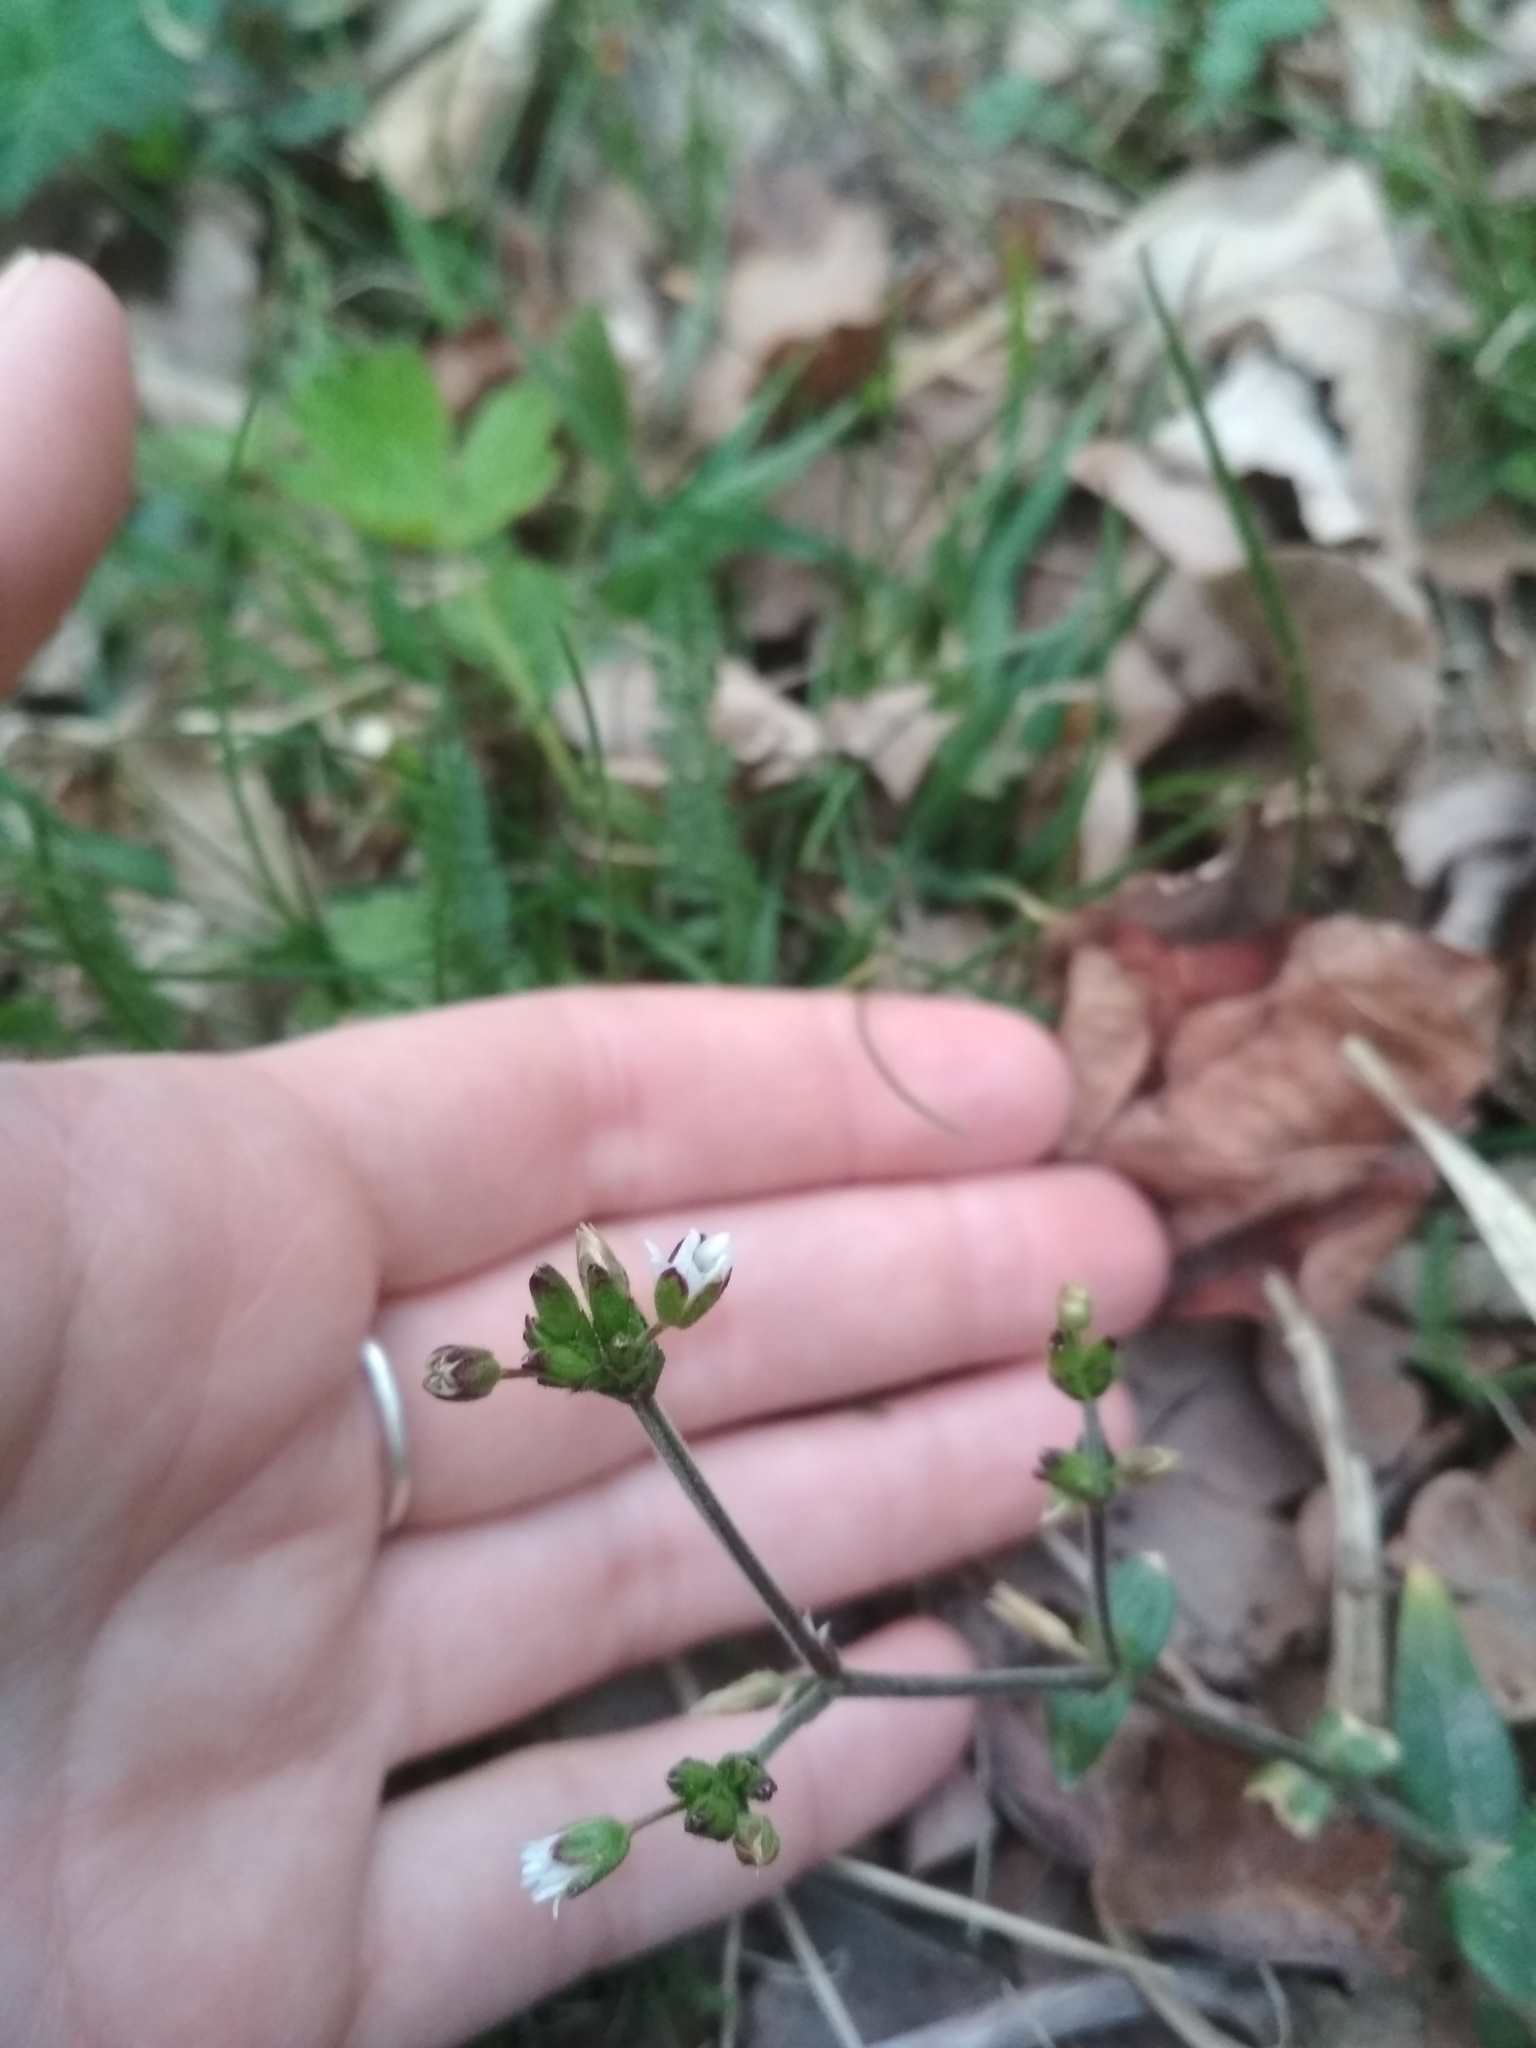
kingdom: Plantae
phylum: Tracheophyta
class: Magnoliopsida
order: Caryophyllales
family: Caryophyllaceae
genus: Cerastium
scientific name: Cerastium holosteoides
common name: Big chickweed
